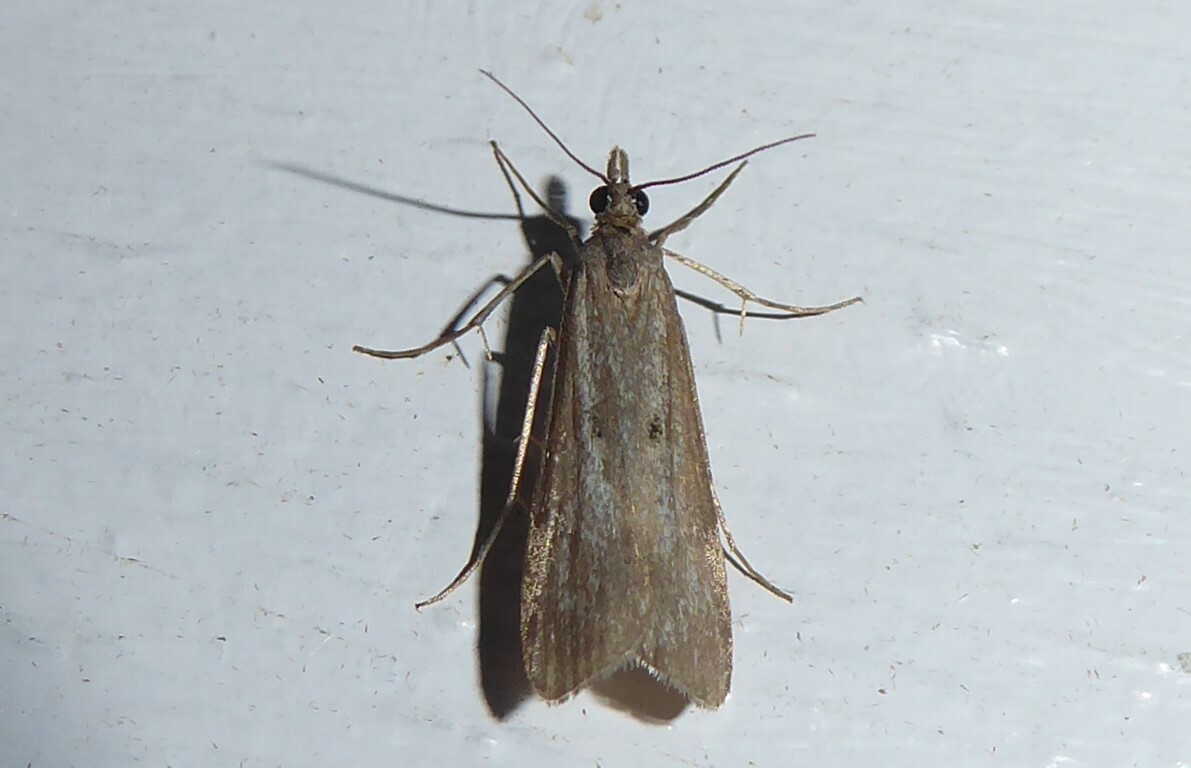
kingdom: Animalia
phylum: Arthropoda
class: Insecta
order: Lepidoptera
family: Crambidae
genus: Eudonia
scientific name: Eudonia leptalea
